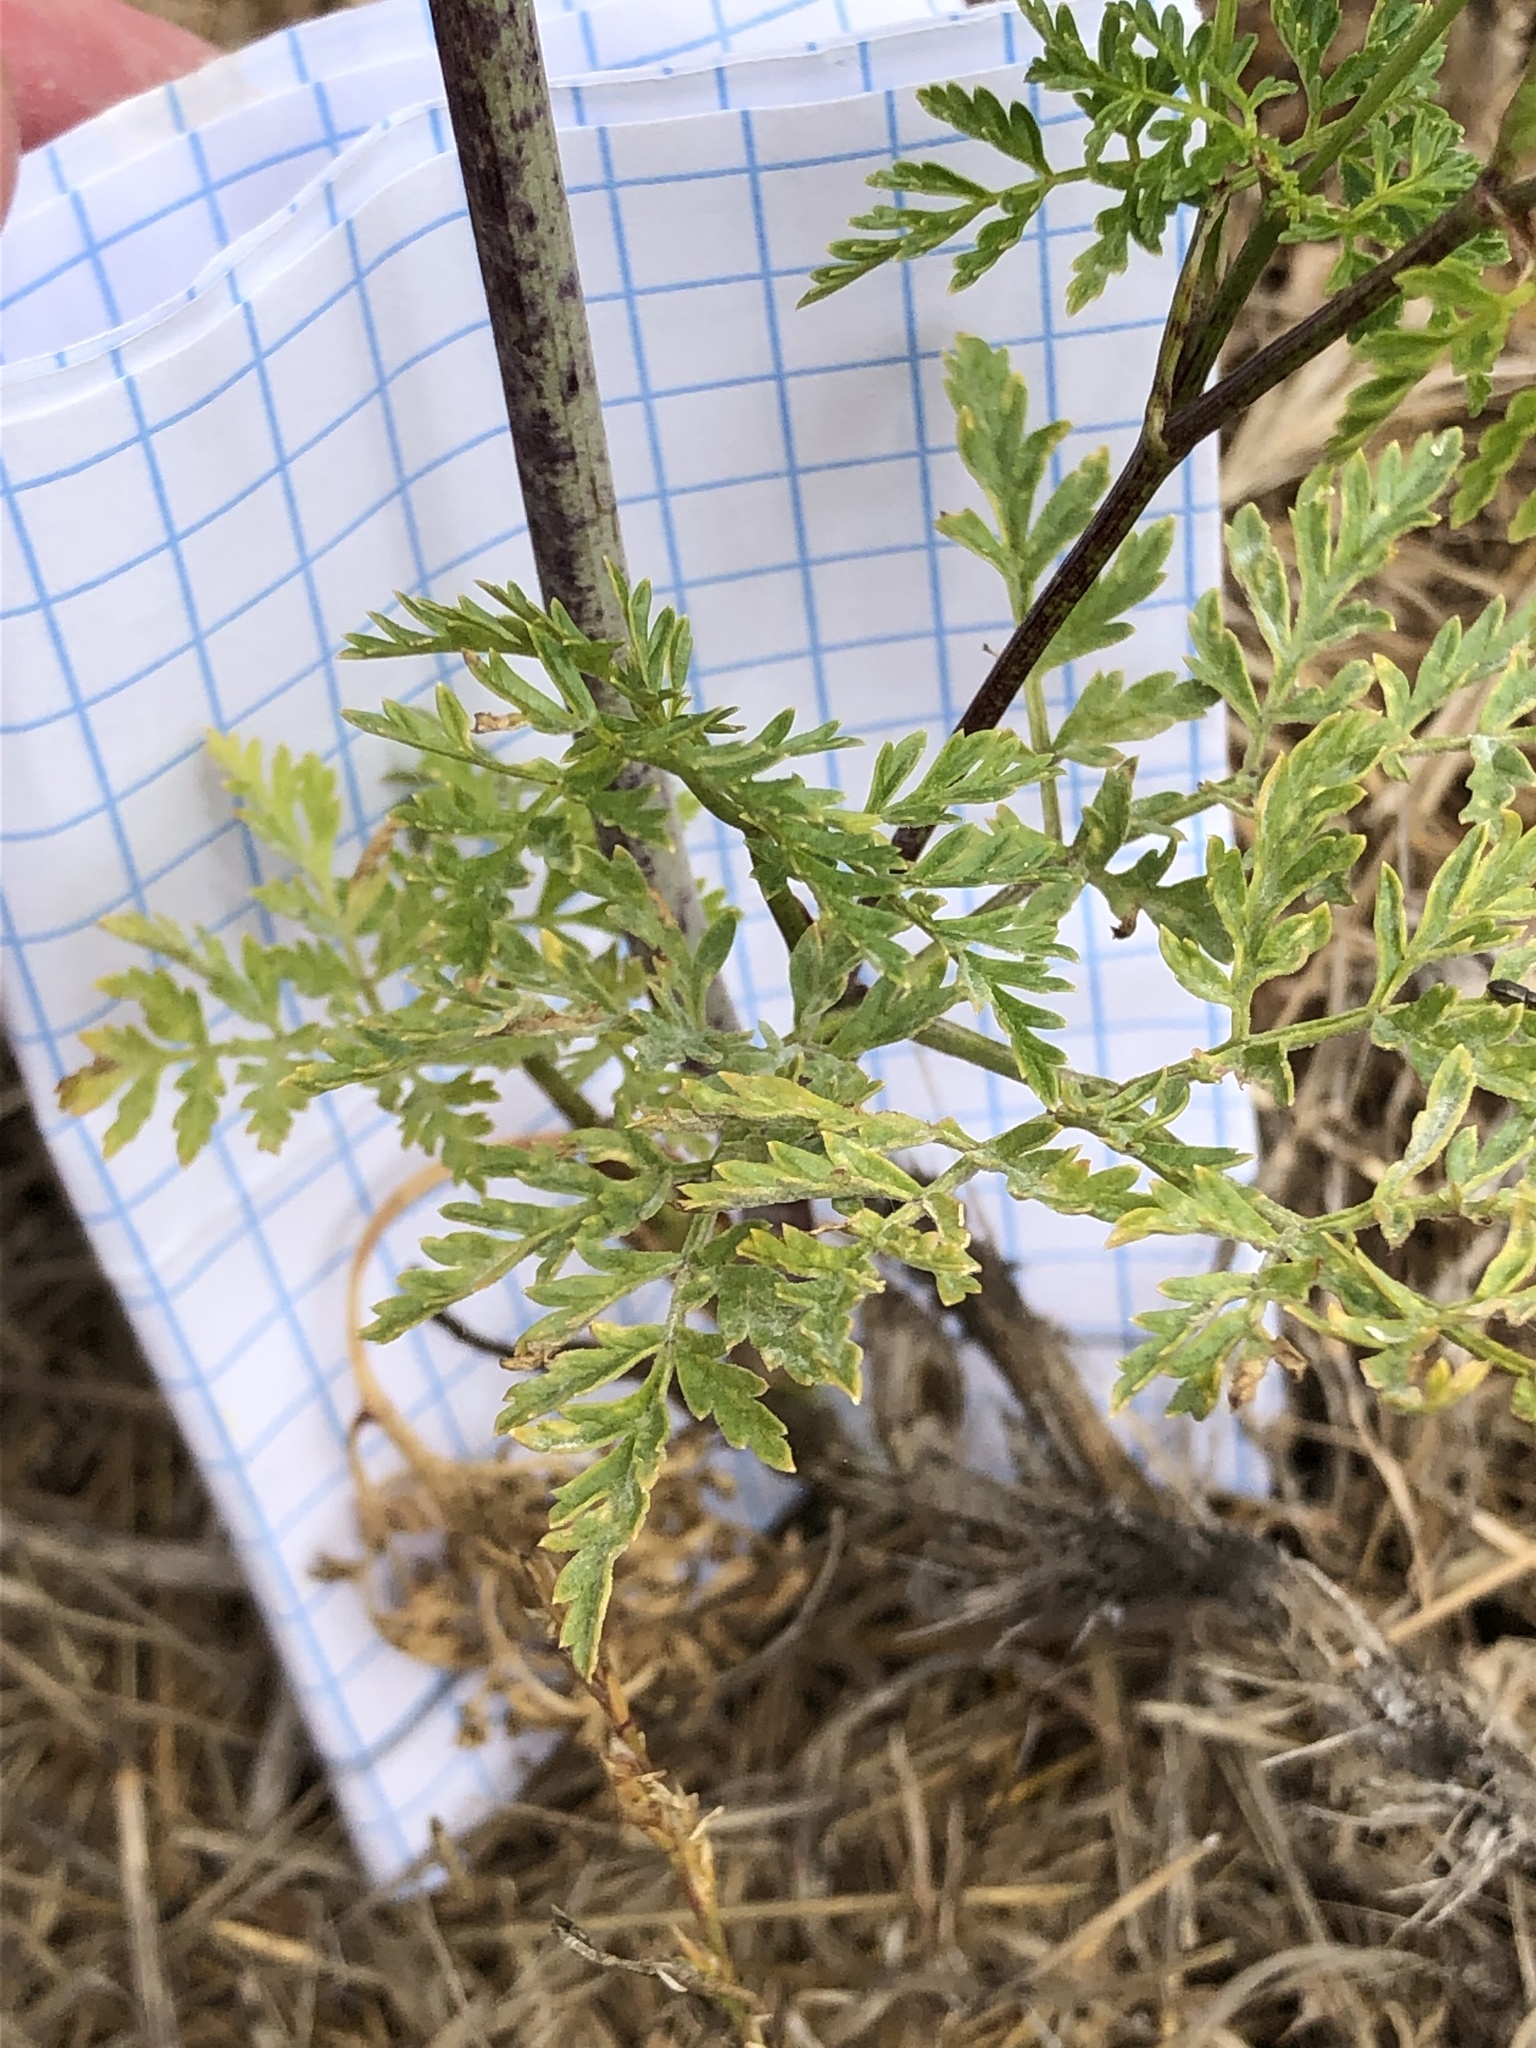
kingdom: Plantae
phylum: Tracheophyta
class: Magnoliopsida
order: Apiales
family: Apiaceae
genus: Conium
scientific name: Conium maculatum
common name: Hemlock
